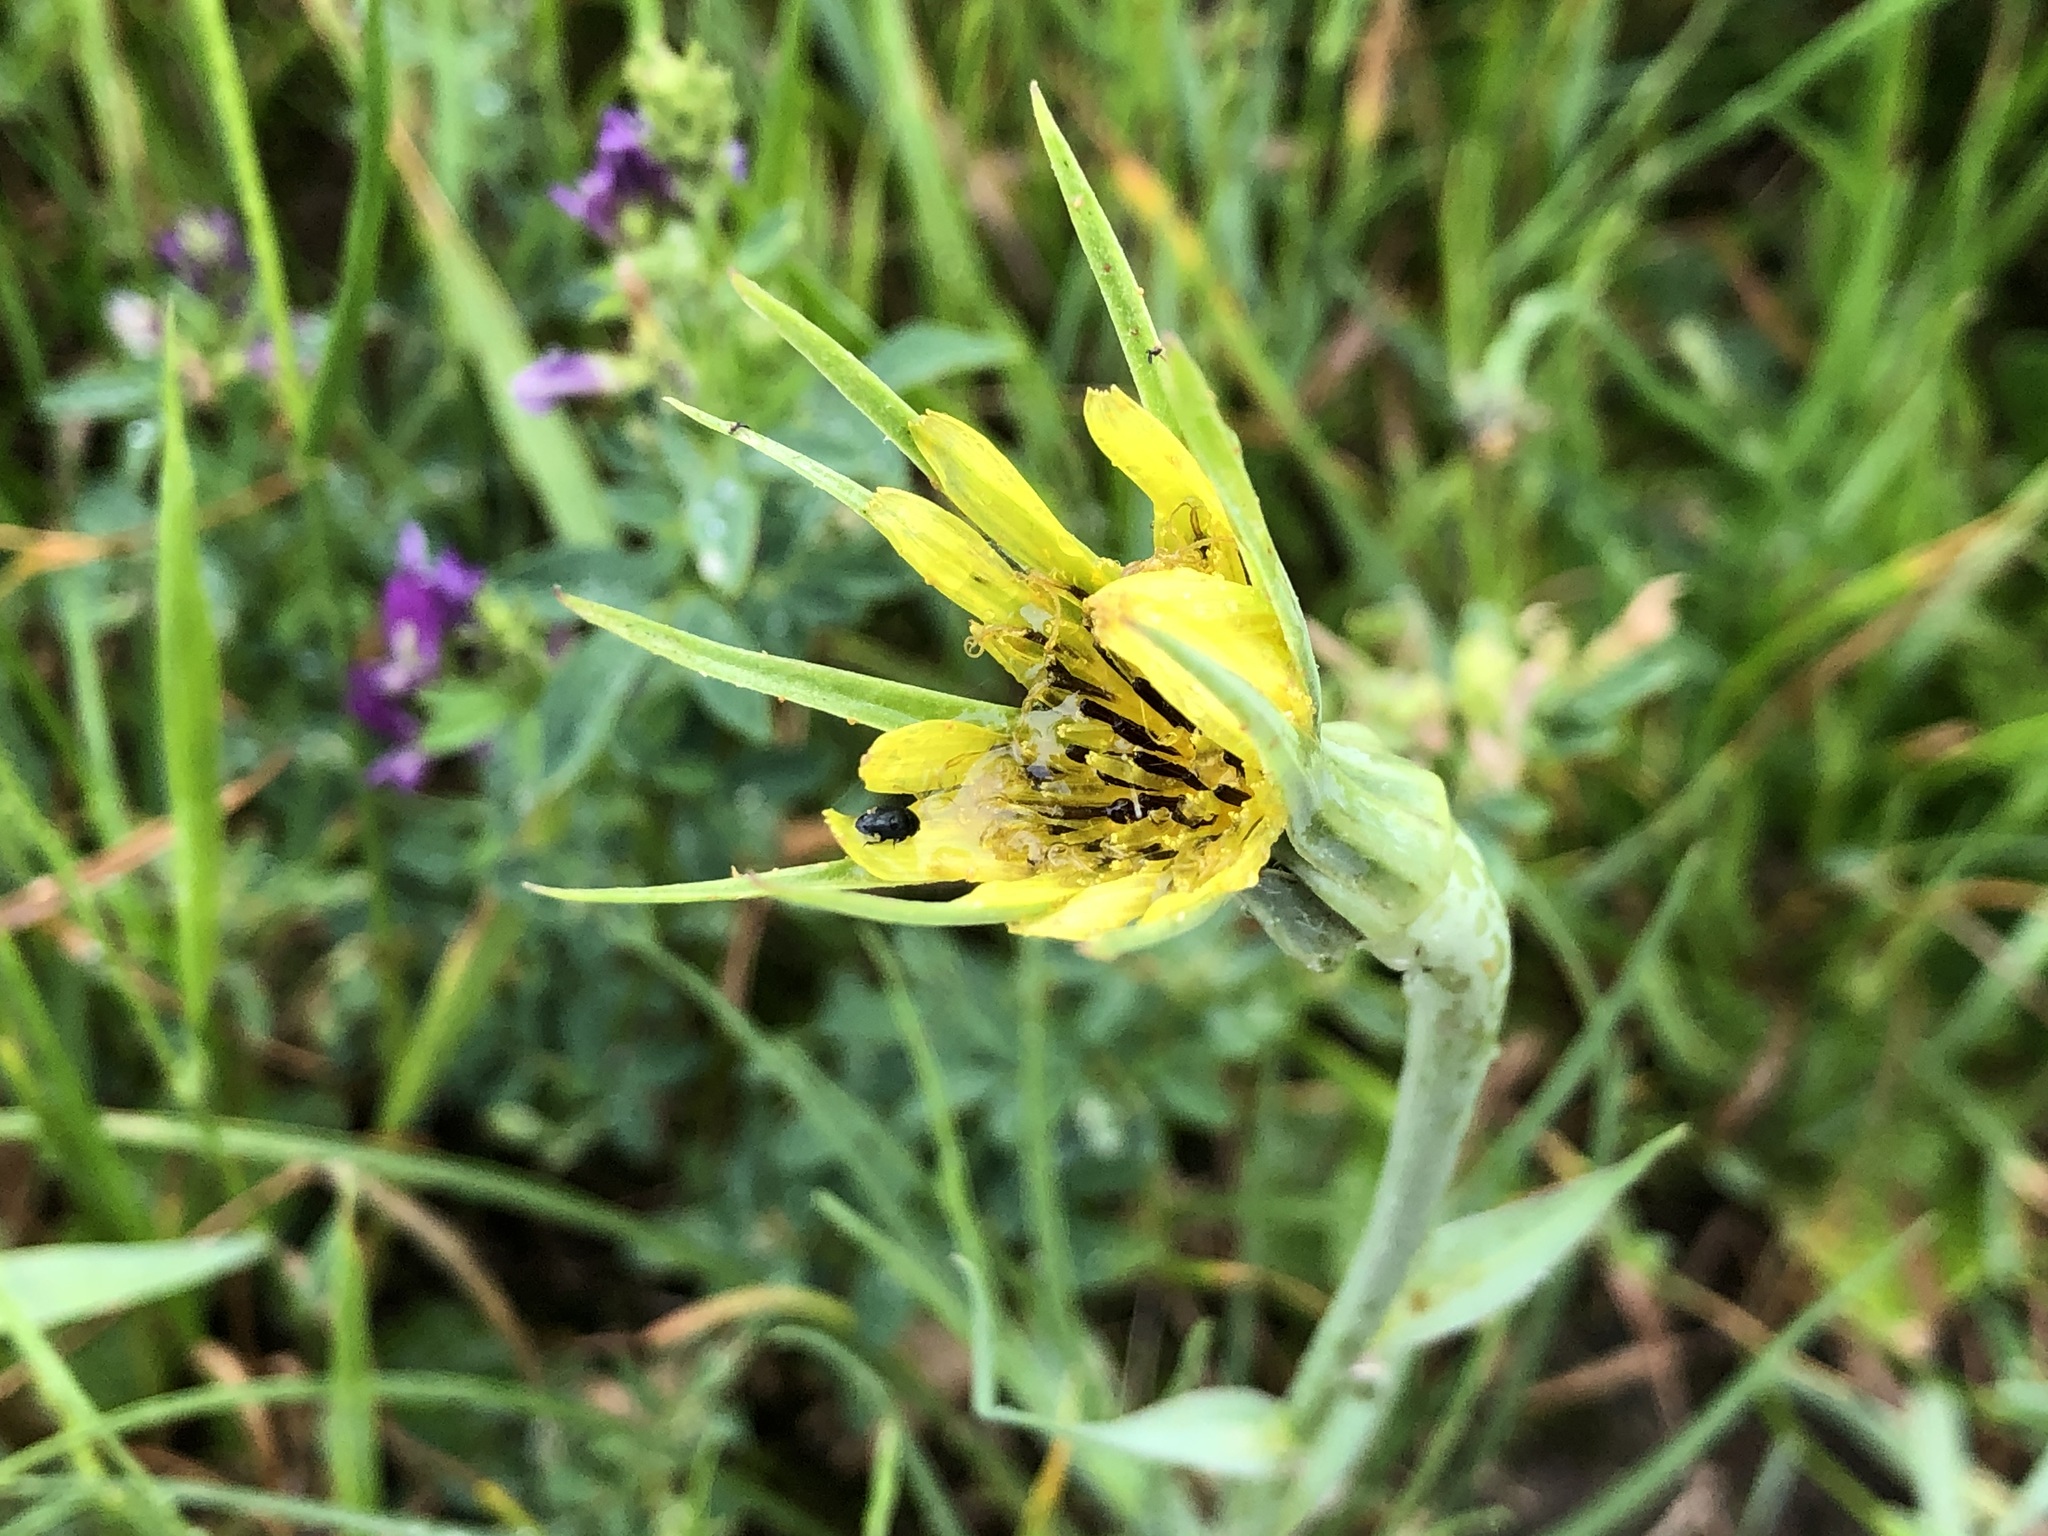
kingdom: Plantae
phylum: Tracheophyta
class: Magnoliopsida
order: Asterales
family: Asteraceae
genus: Tragopogon
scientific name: Tragopogon dubius
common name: Yellow salsify
